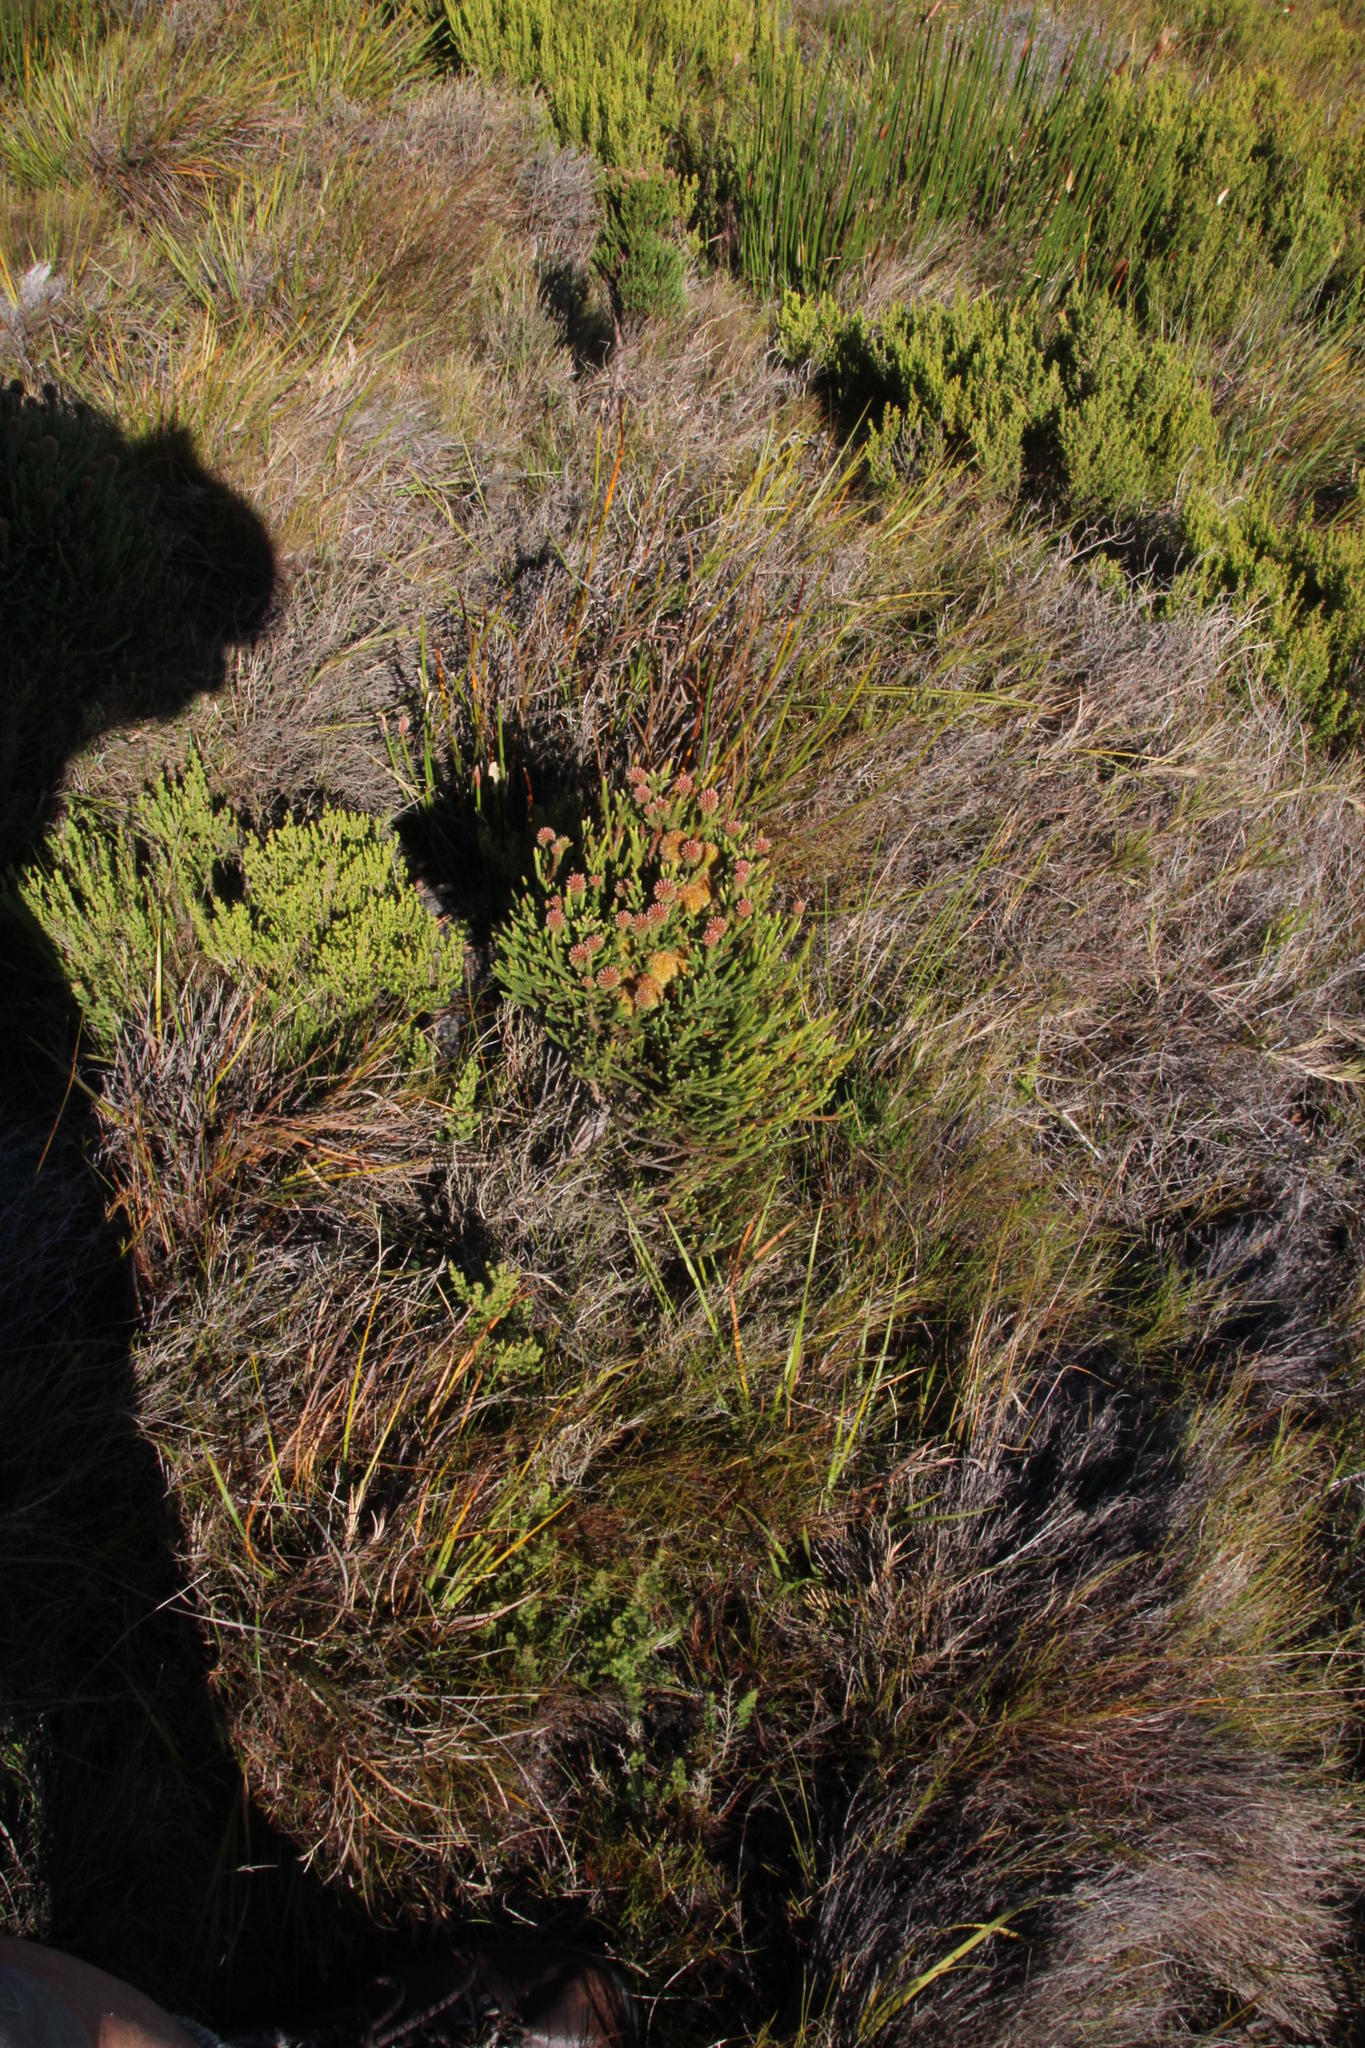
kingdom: Plantae
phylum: Tracheophyta
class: Magnoliopsida
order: Bruniales
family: Bruniaceae
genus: Brunia
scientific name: Brunia fragarioides
